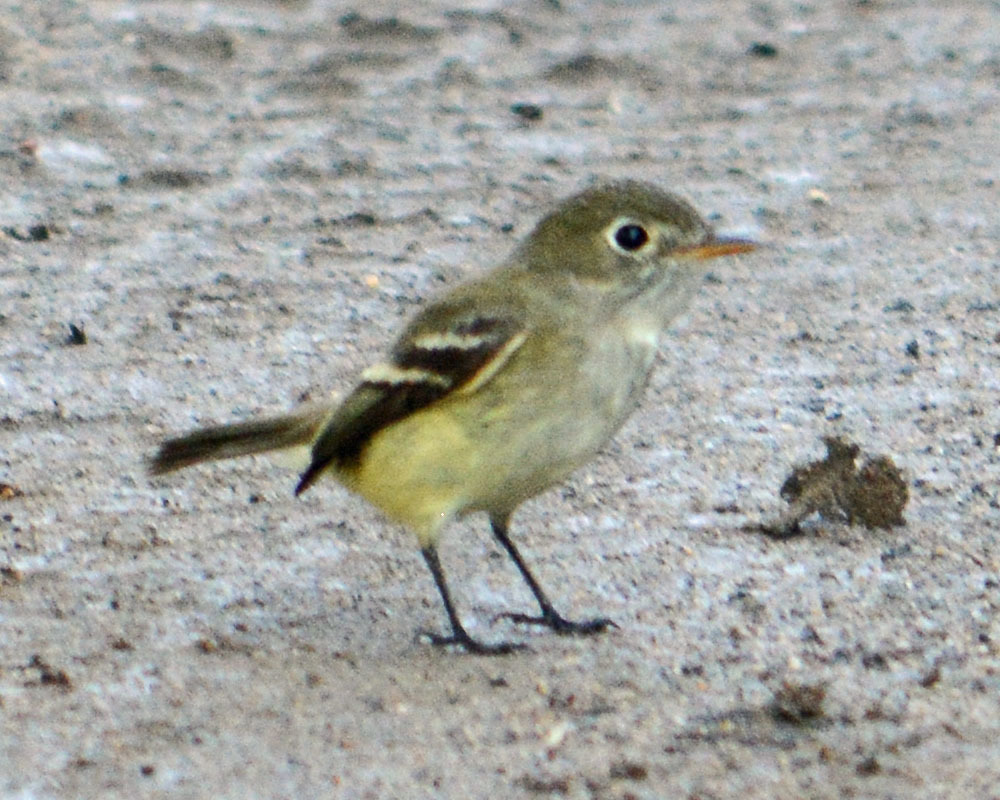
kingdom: Animalia
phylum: Chordata
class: Aves
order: Passeriformes
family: Tyrannidae
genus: Empidonax
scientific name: Empidonax
